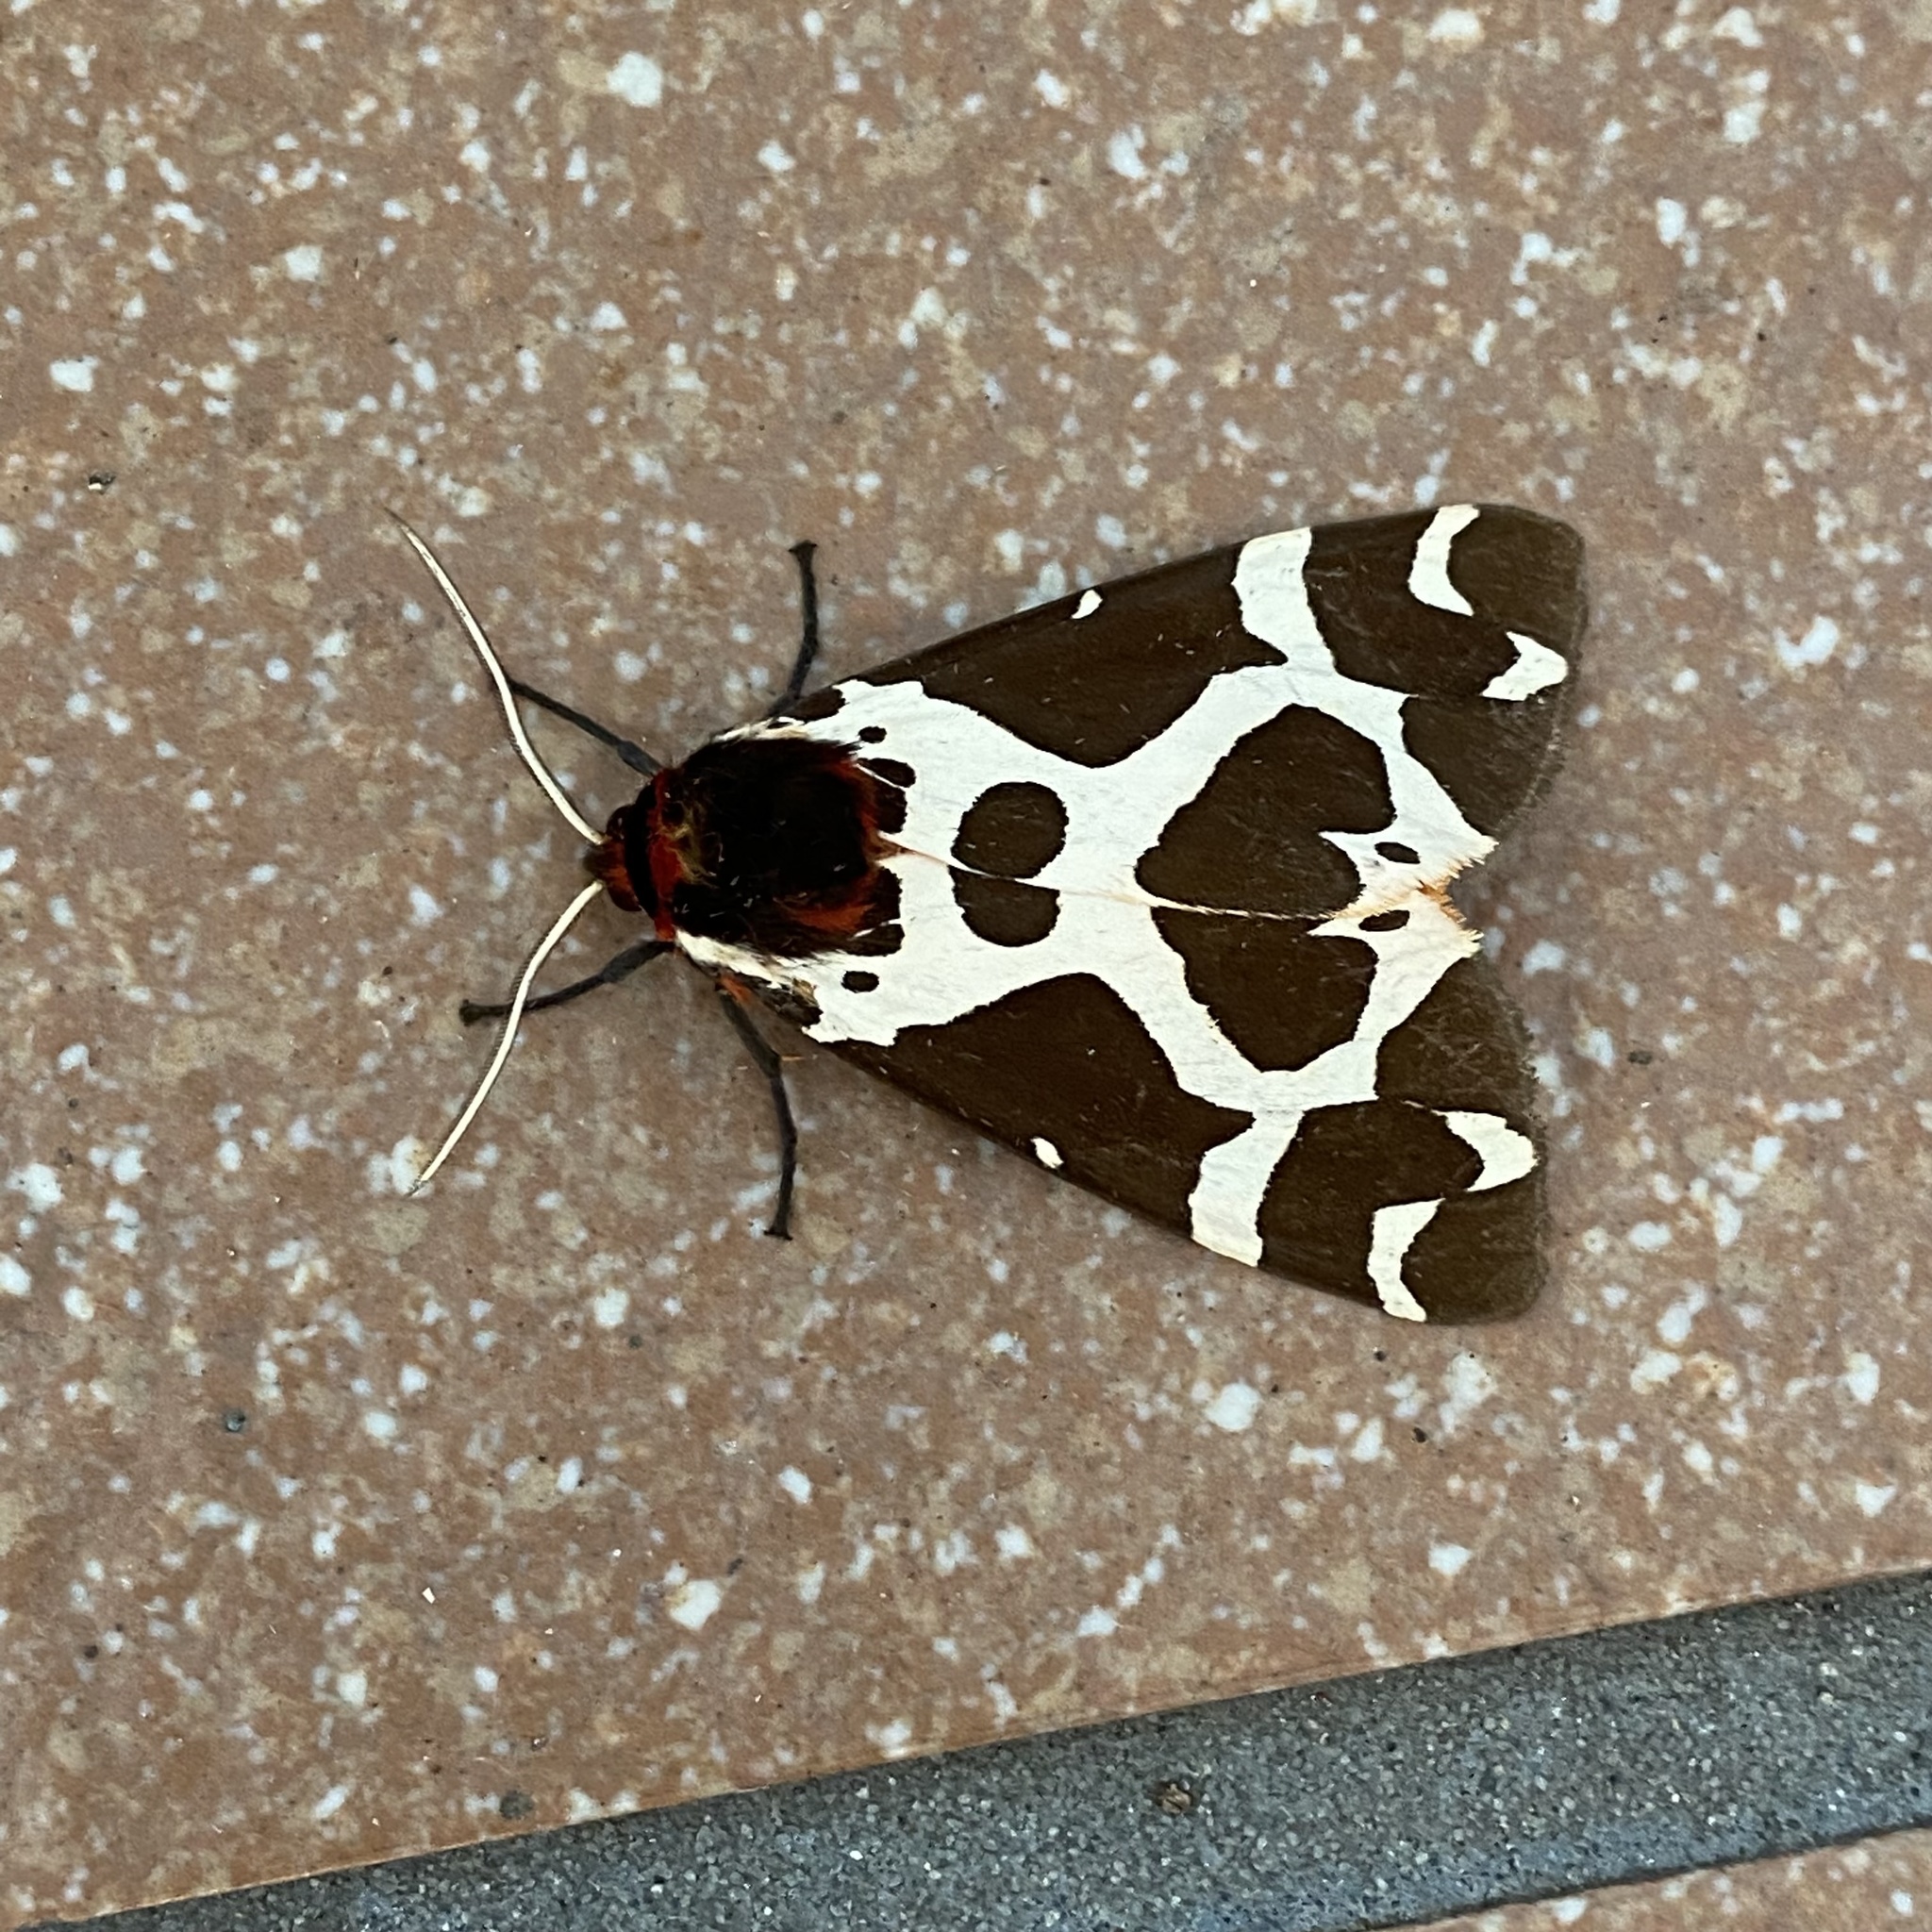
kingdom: Animalia
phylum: Arthropoda
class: Insecta
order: Lepidoptera
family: Erebidae
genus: Arctia
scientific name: Arctia caja
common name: Garden tiger
